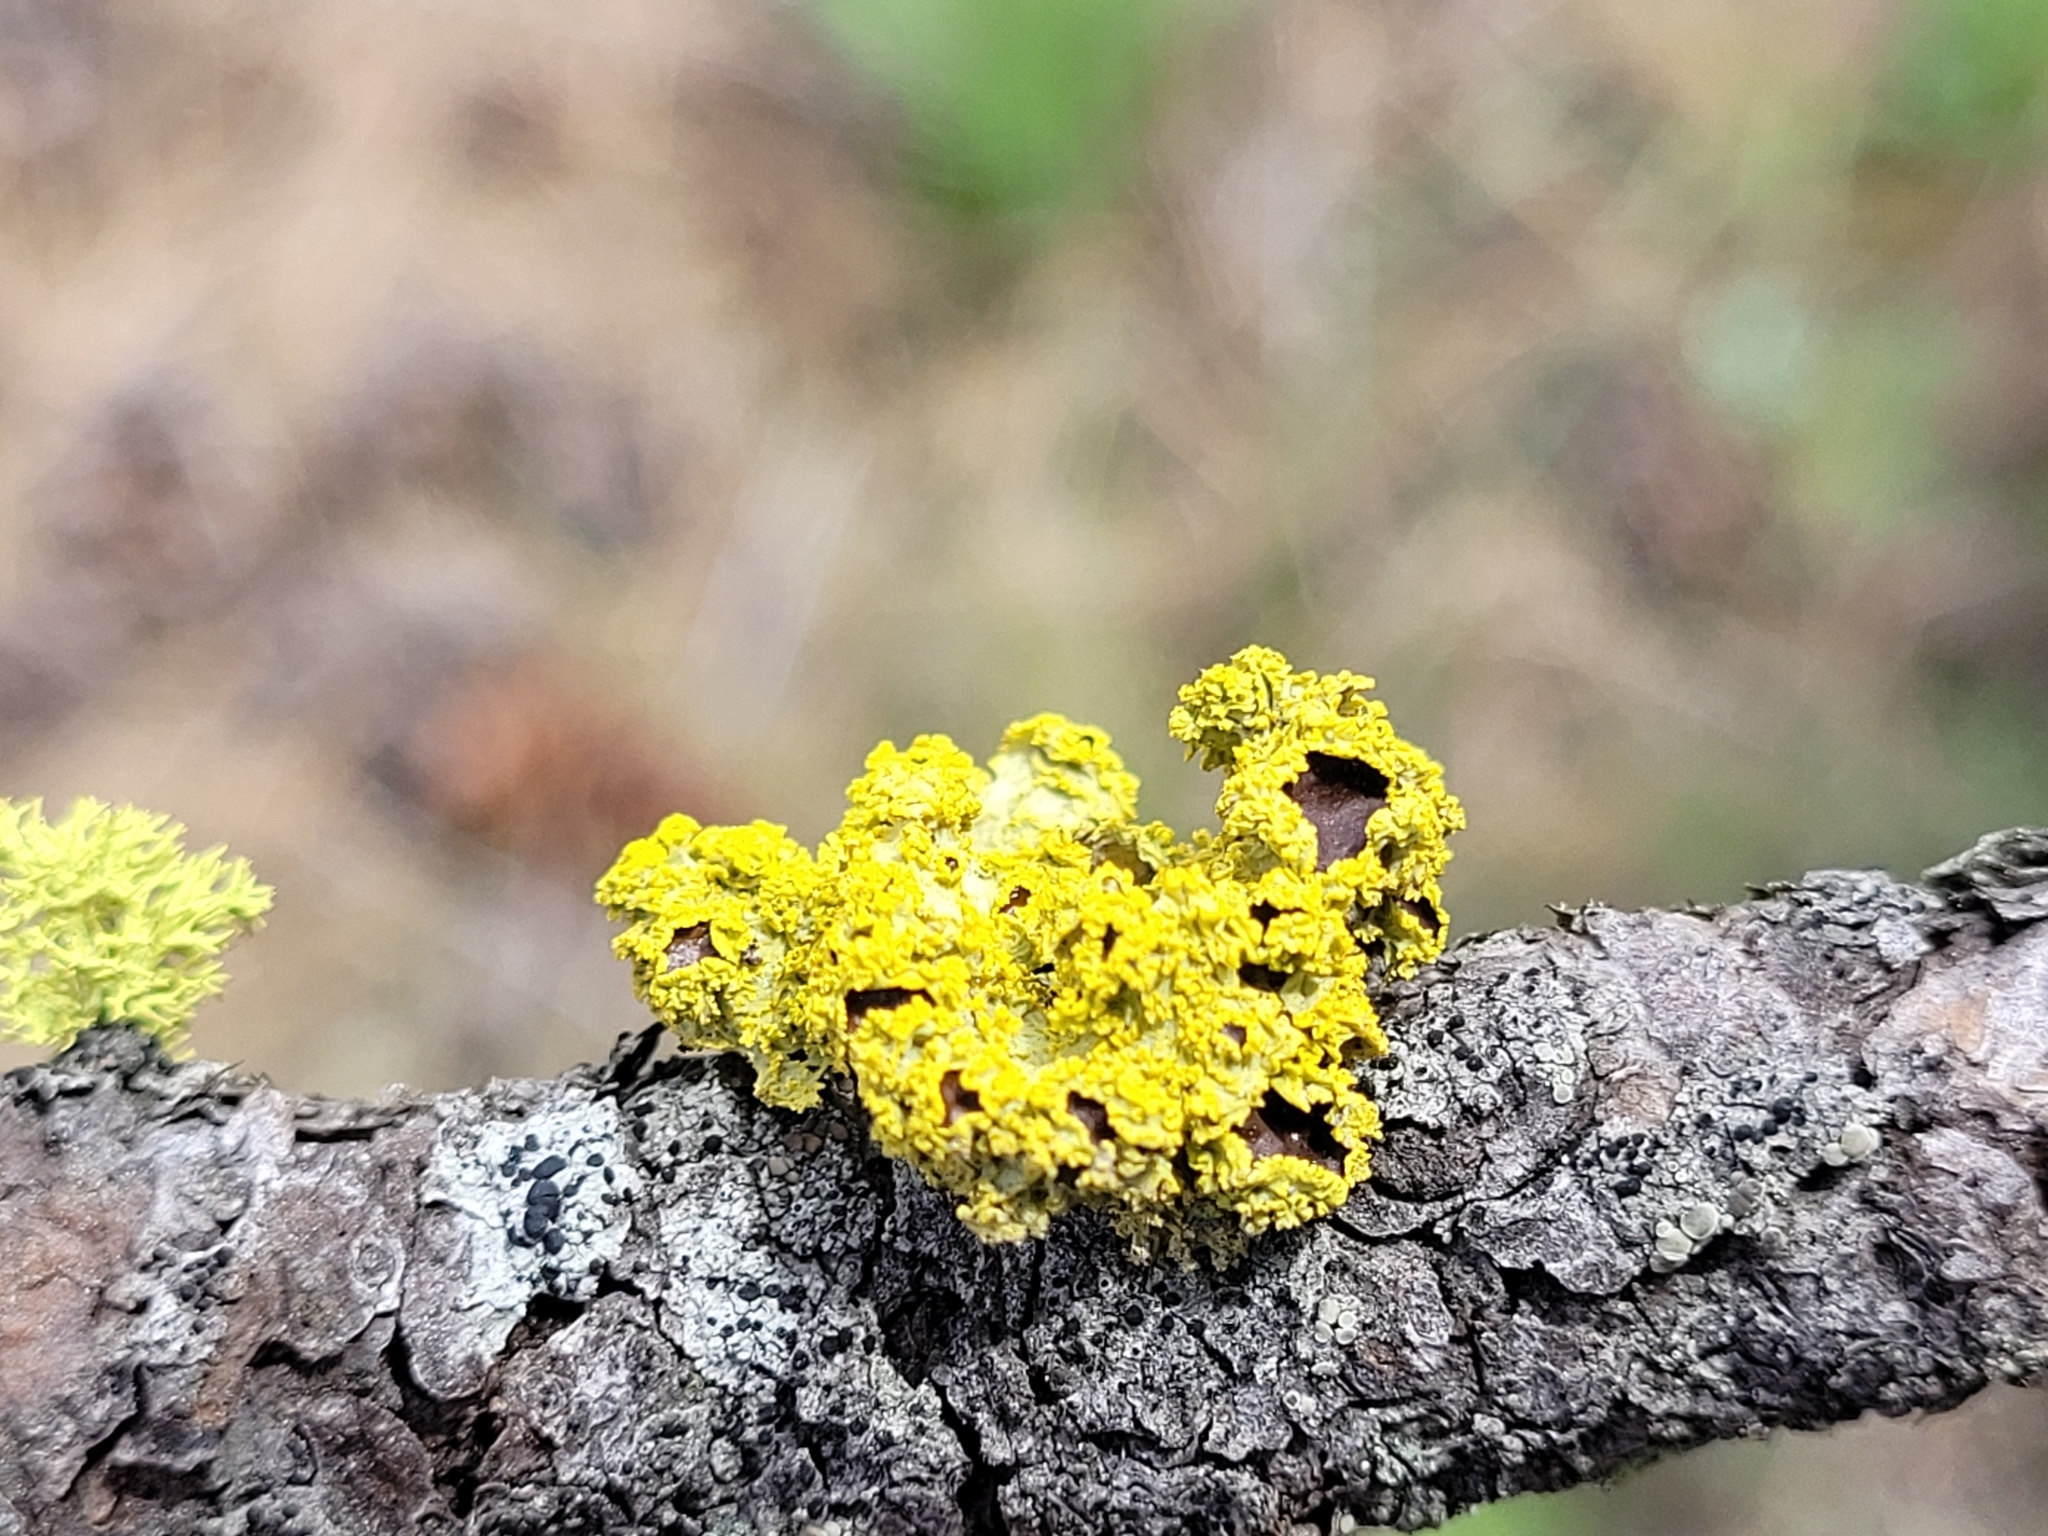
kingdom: Fungi
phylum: Ascomycota
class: Lecanoromycetes
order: Lecanorales
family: Parmeliaceae
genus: Vulpicida
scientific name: Vulpicida canadensis
